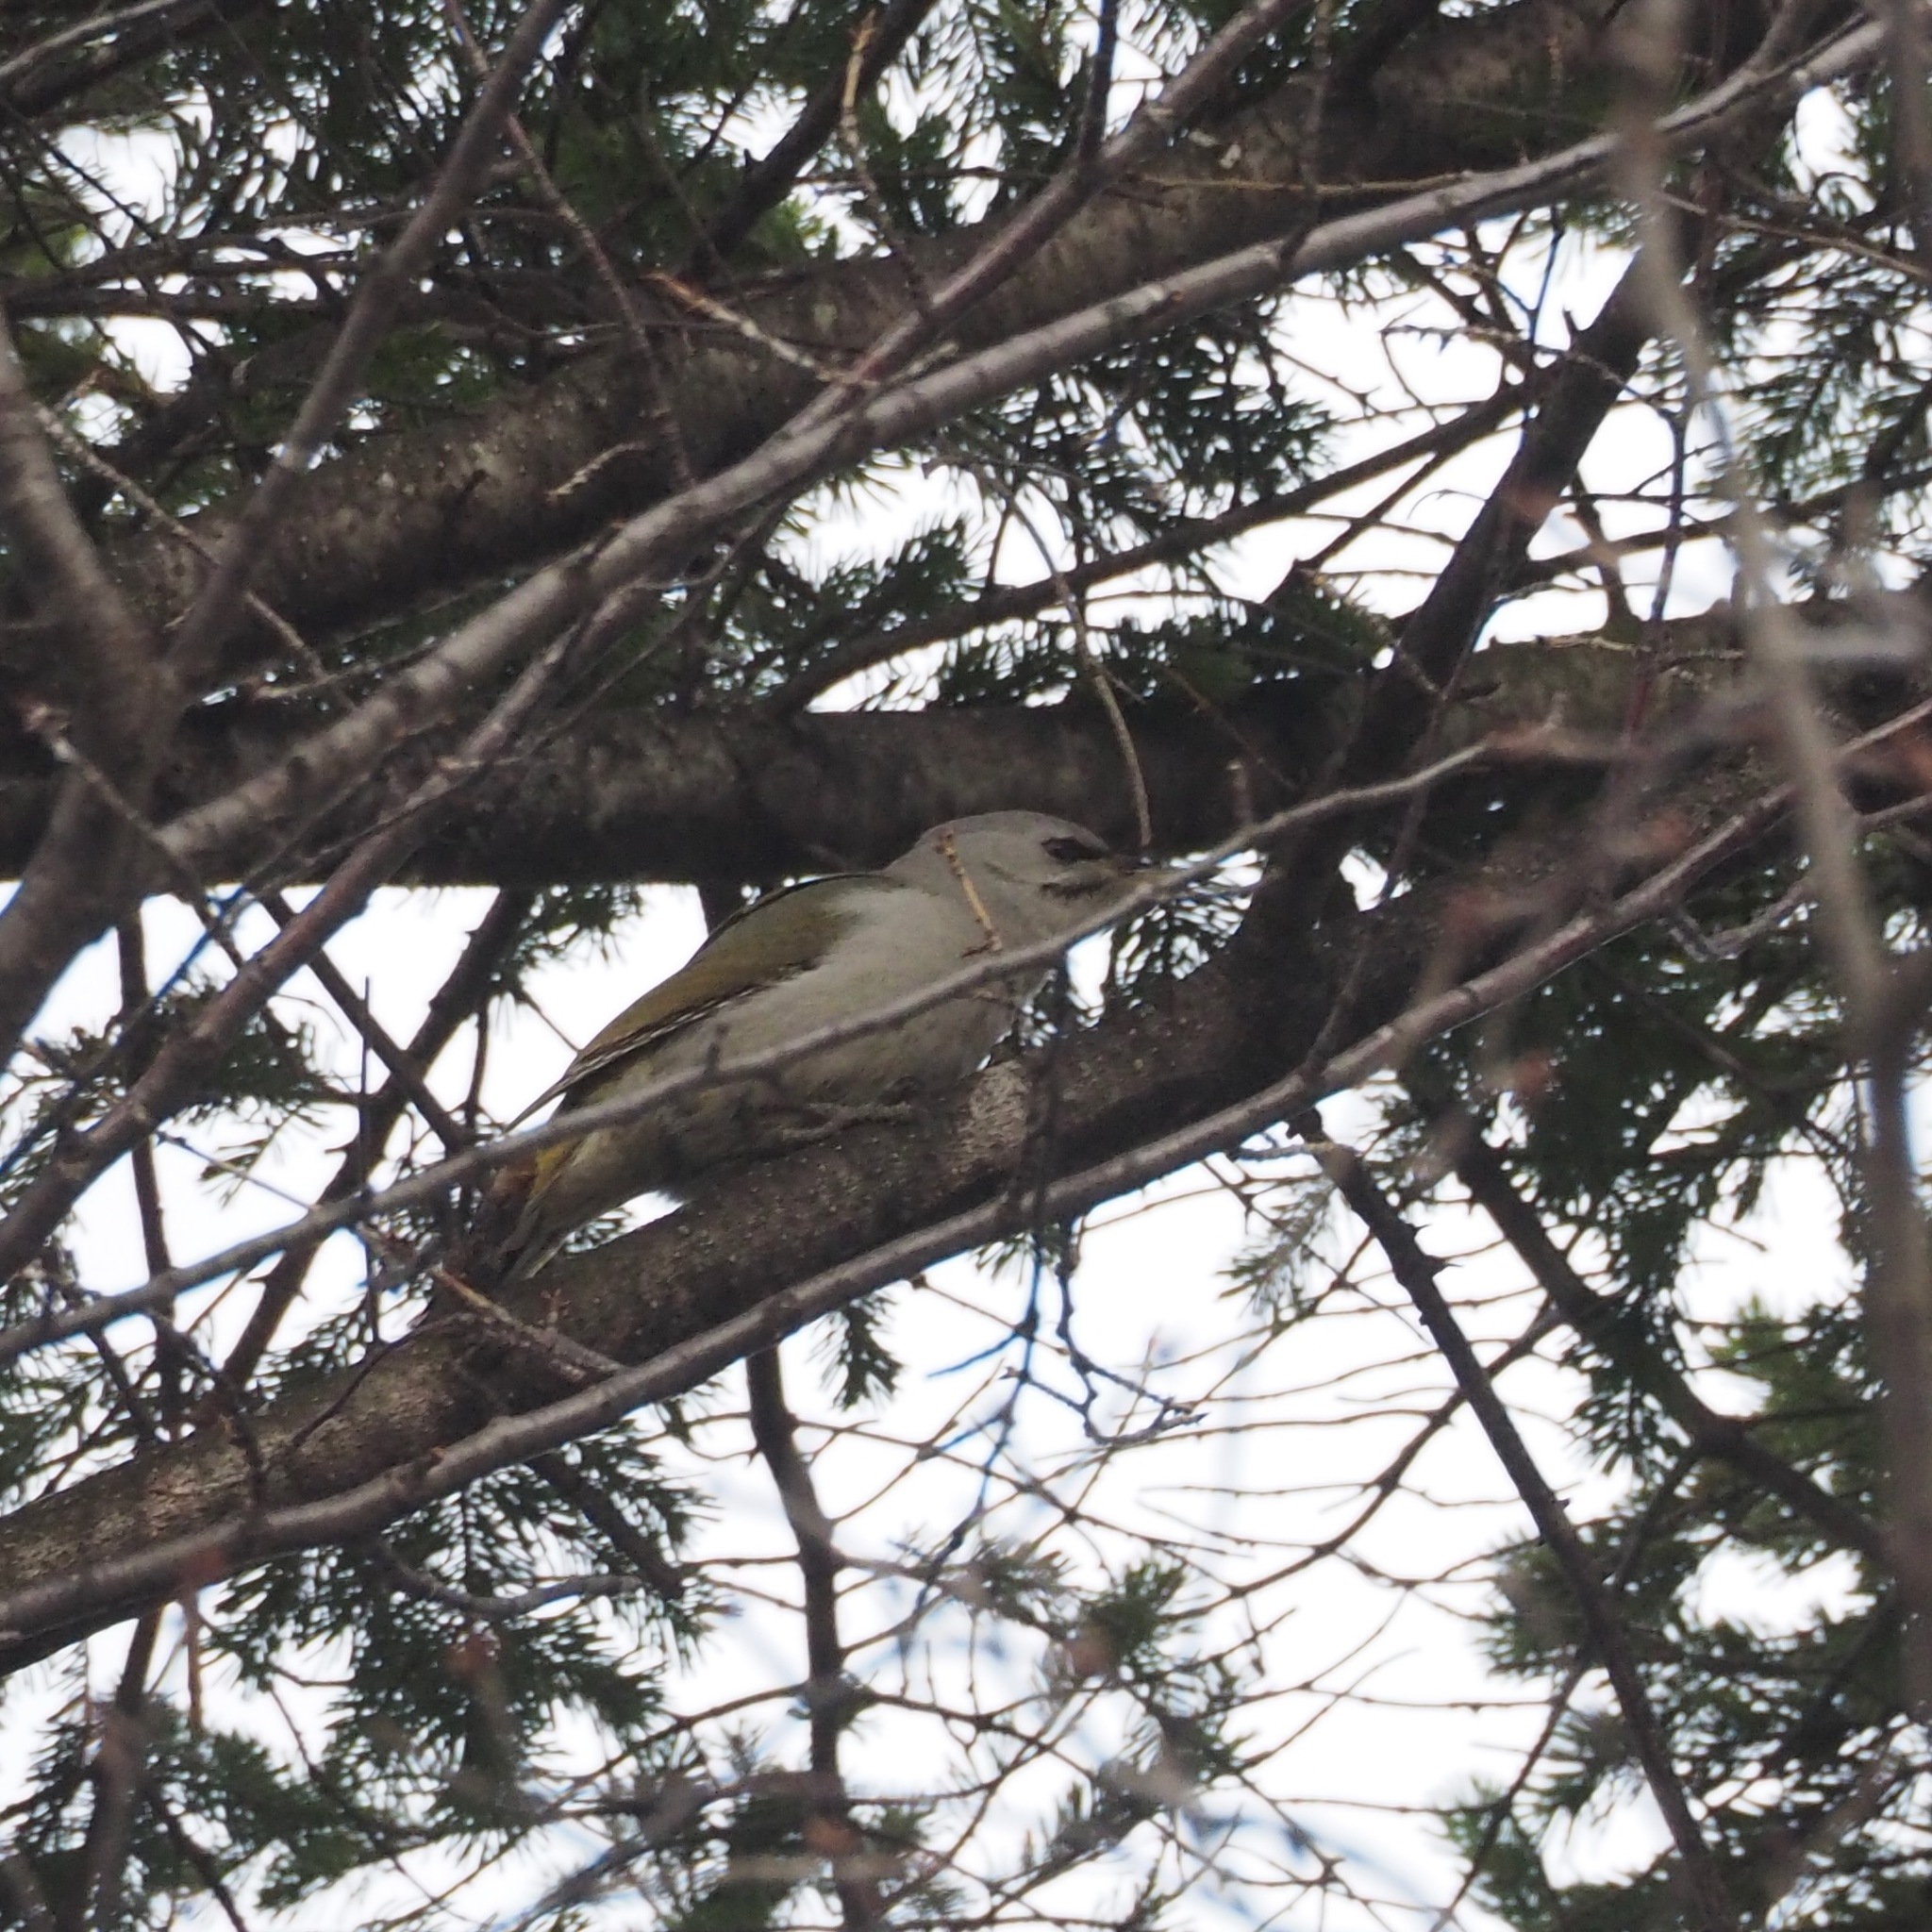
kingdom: Animalia
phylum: Chordata
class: Aves
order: Piciformes
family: Picidae
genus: Picus
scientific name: Picus canus
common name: Grey-headed woodpecker
